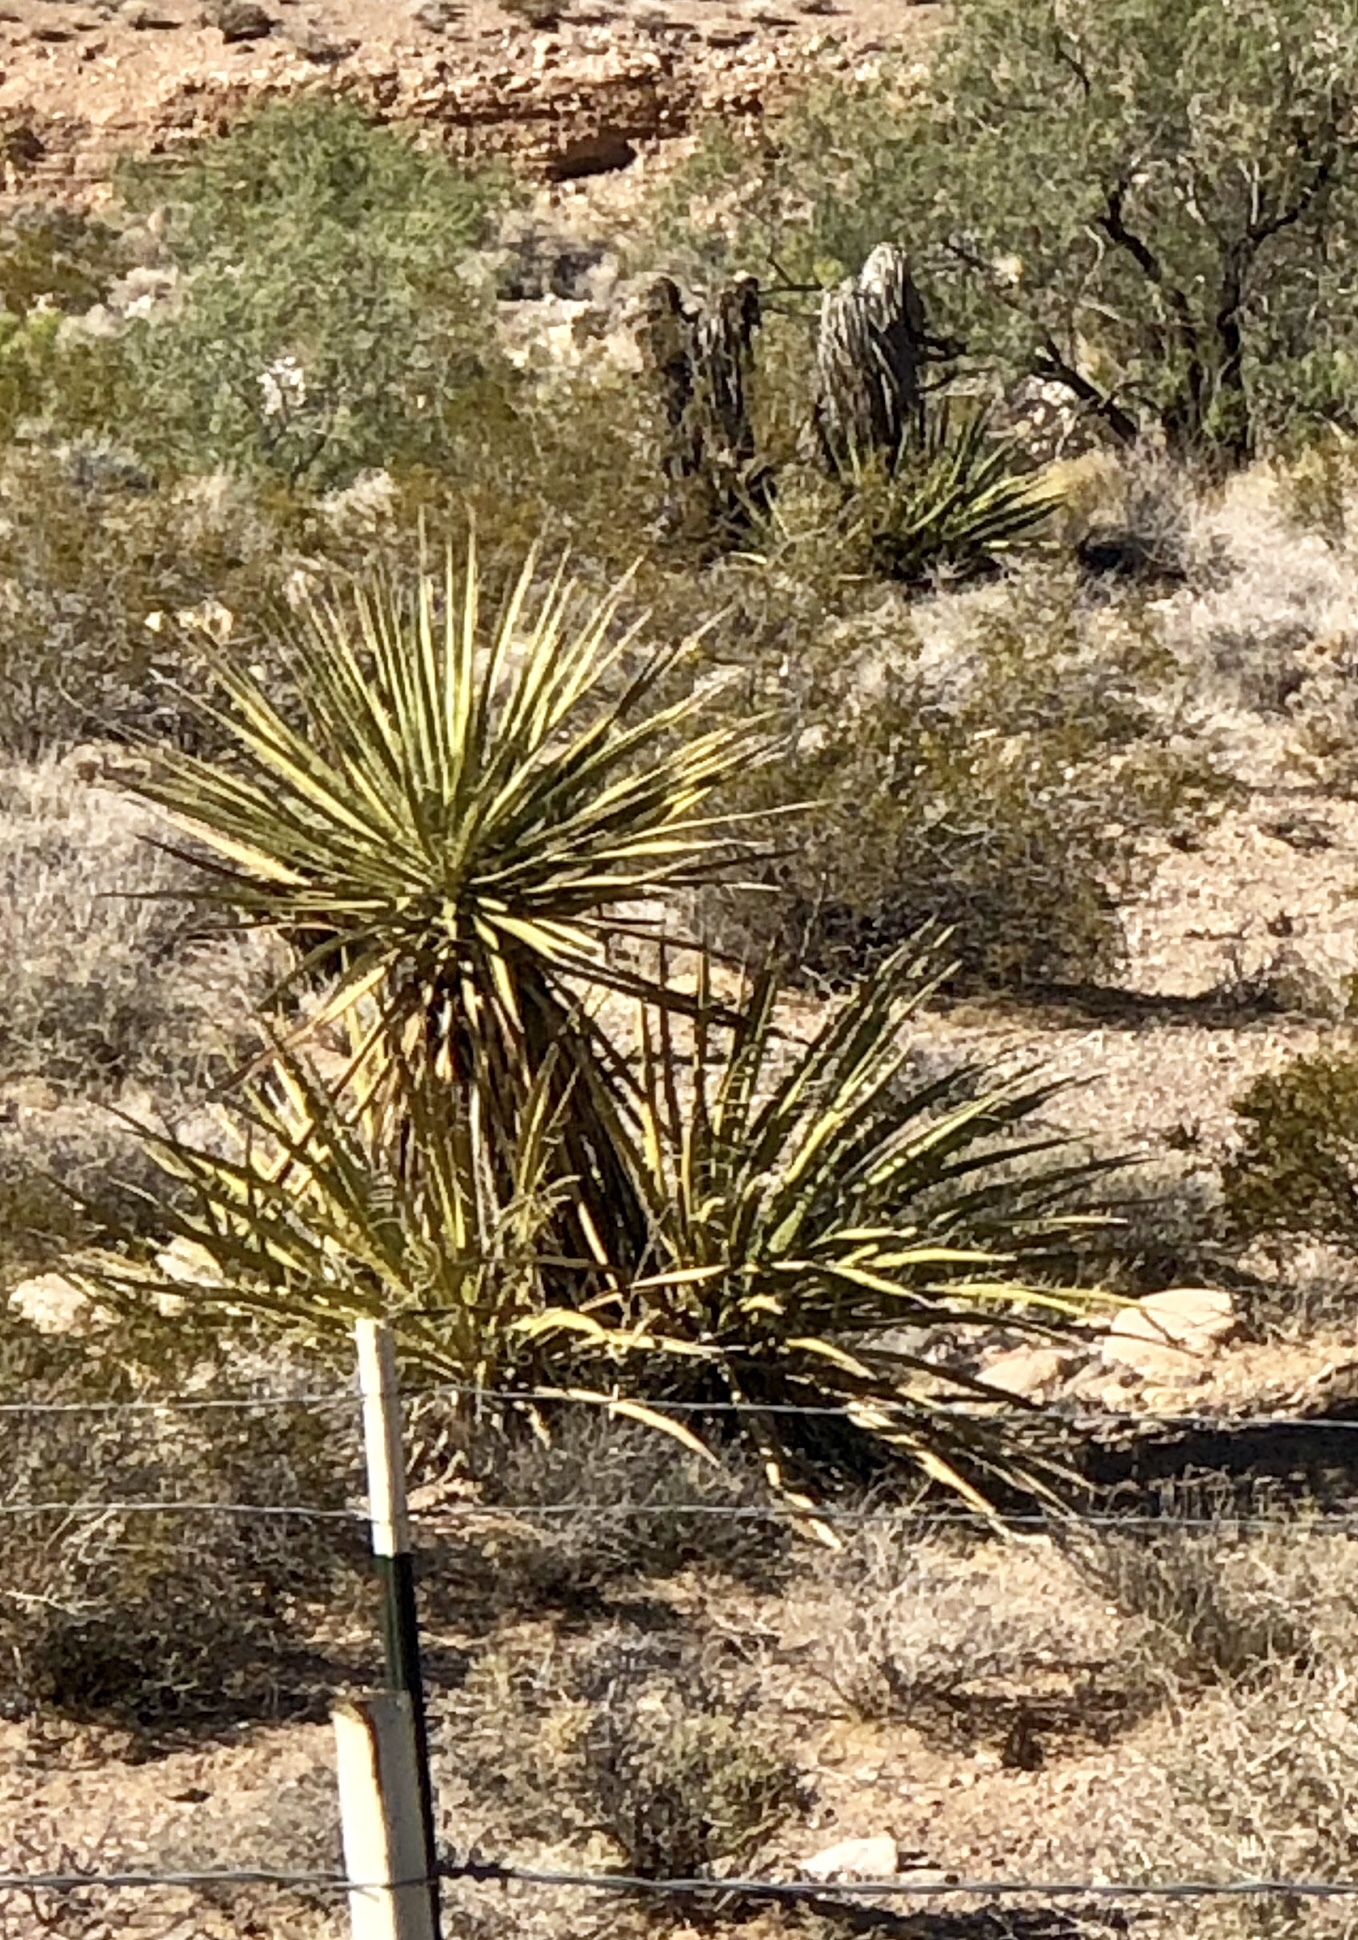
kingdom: Plantae
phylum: Tracheophyta
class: Liliopsida
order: Asparagales
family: Asparagaceae
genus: Yucca
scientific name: Yucca schidigera
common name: Mojave yucca
